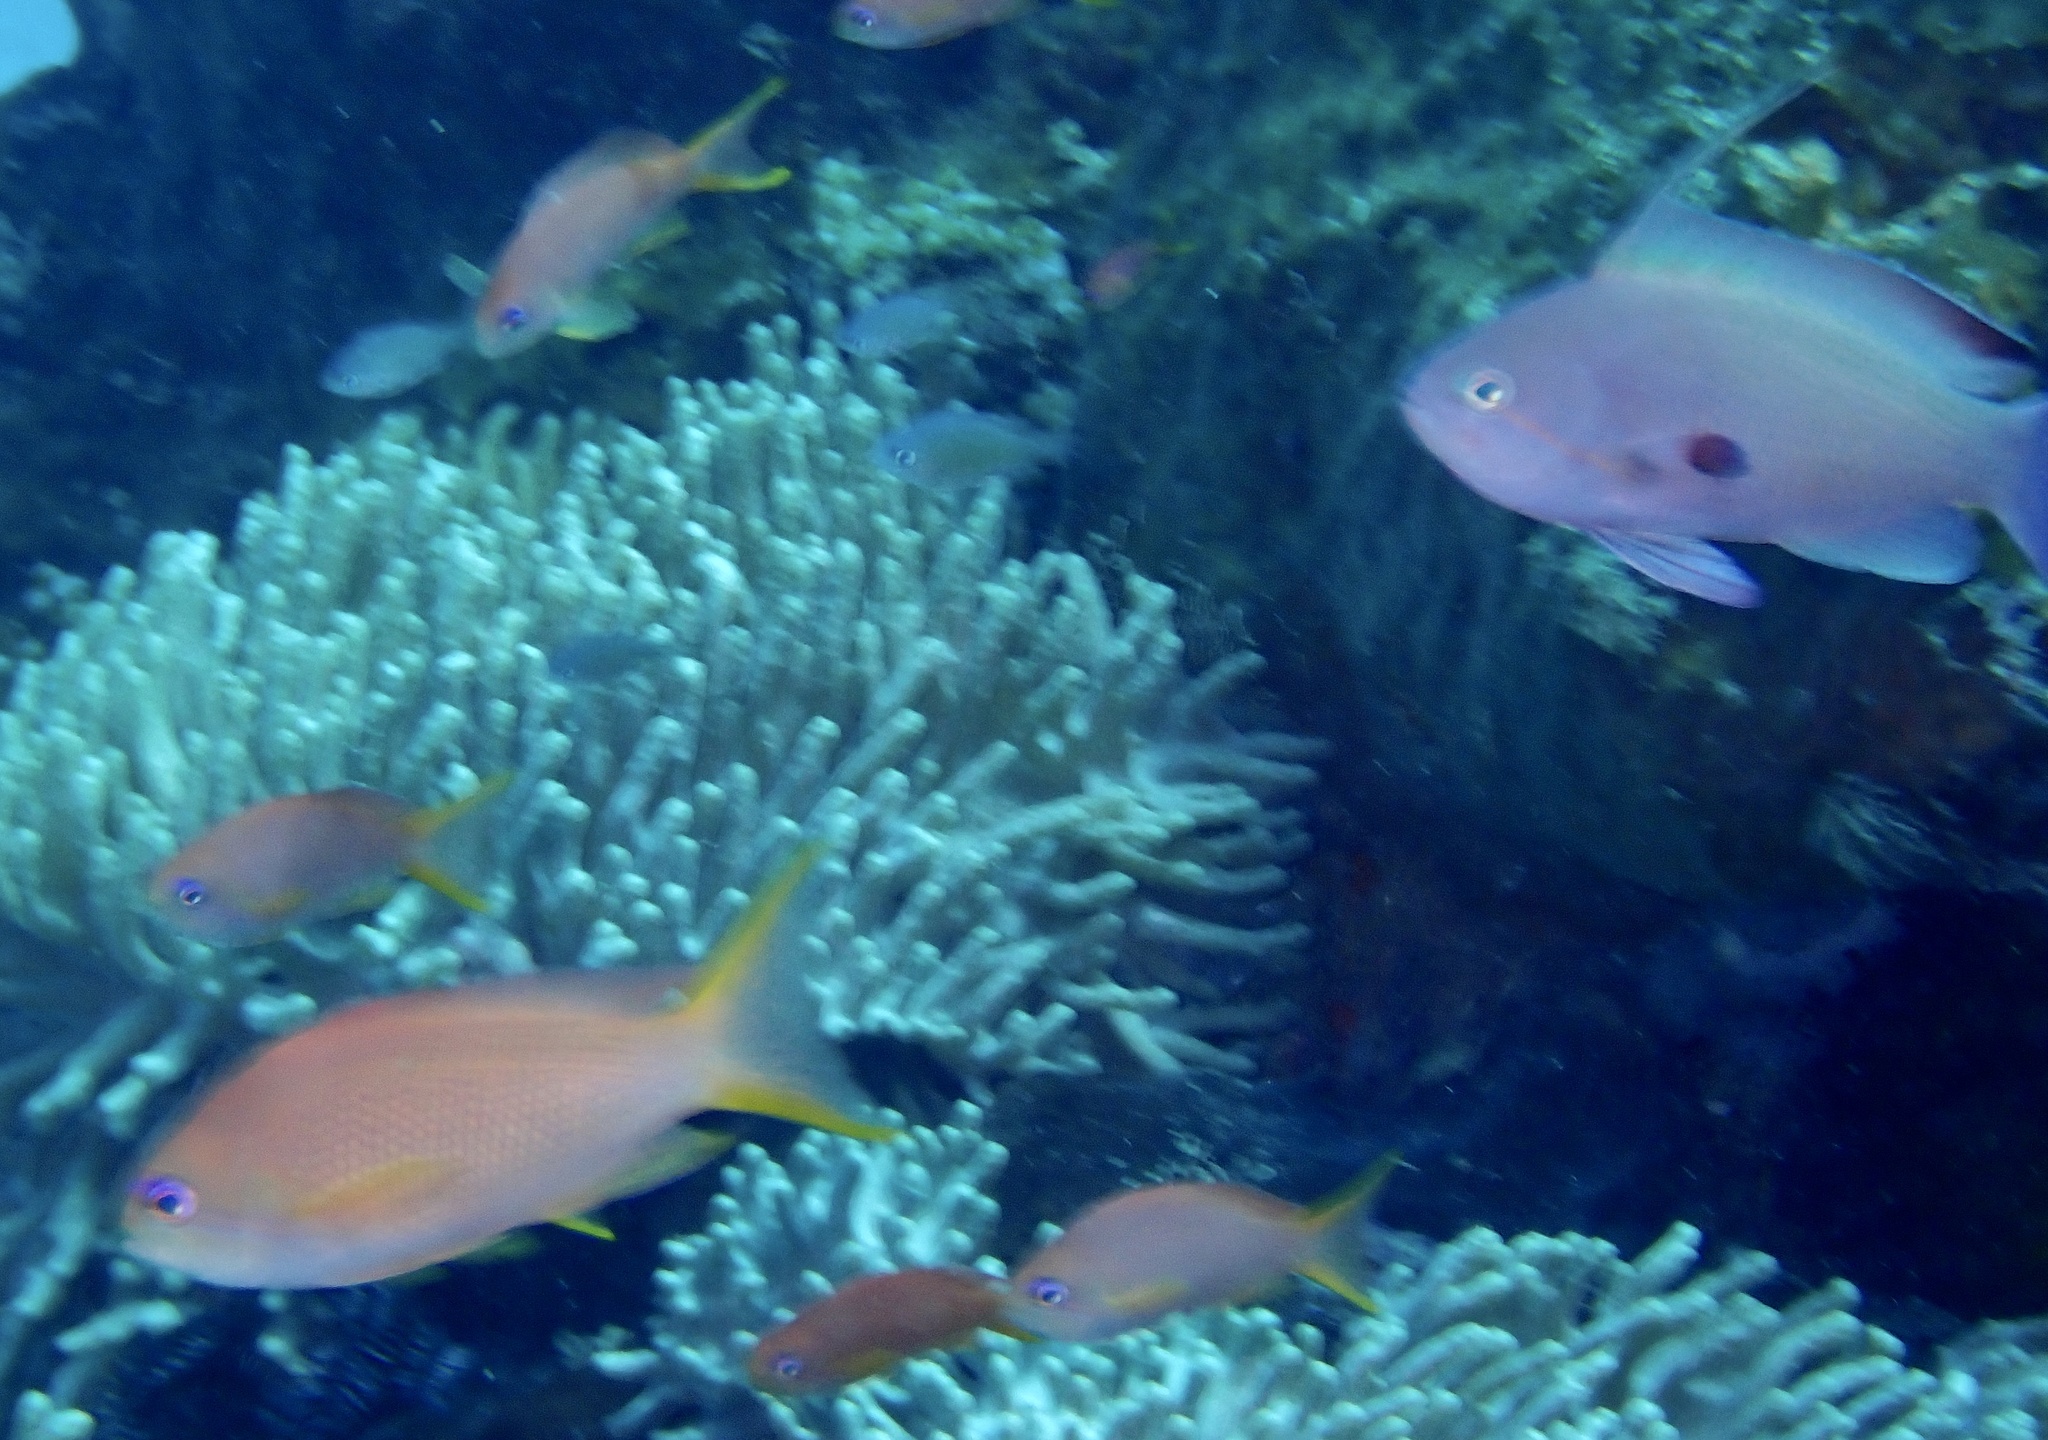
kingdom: Animalia
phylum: Chordata
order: Perciformes
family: Serranidae
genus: Pseudanthias
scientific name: Pseudanthias squamipinnis
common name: Scalefin anthias
